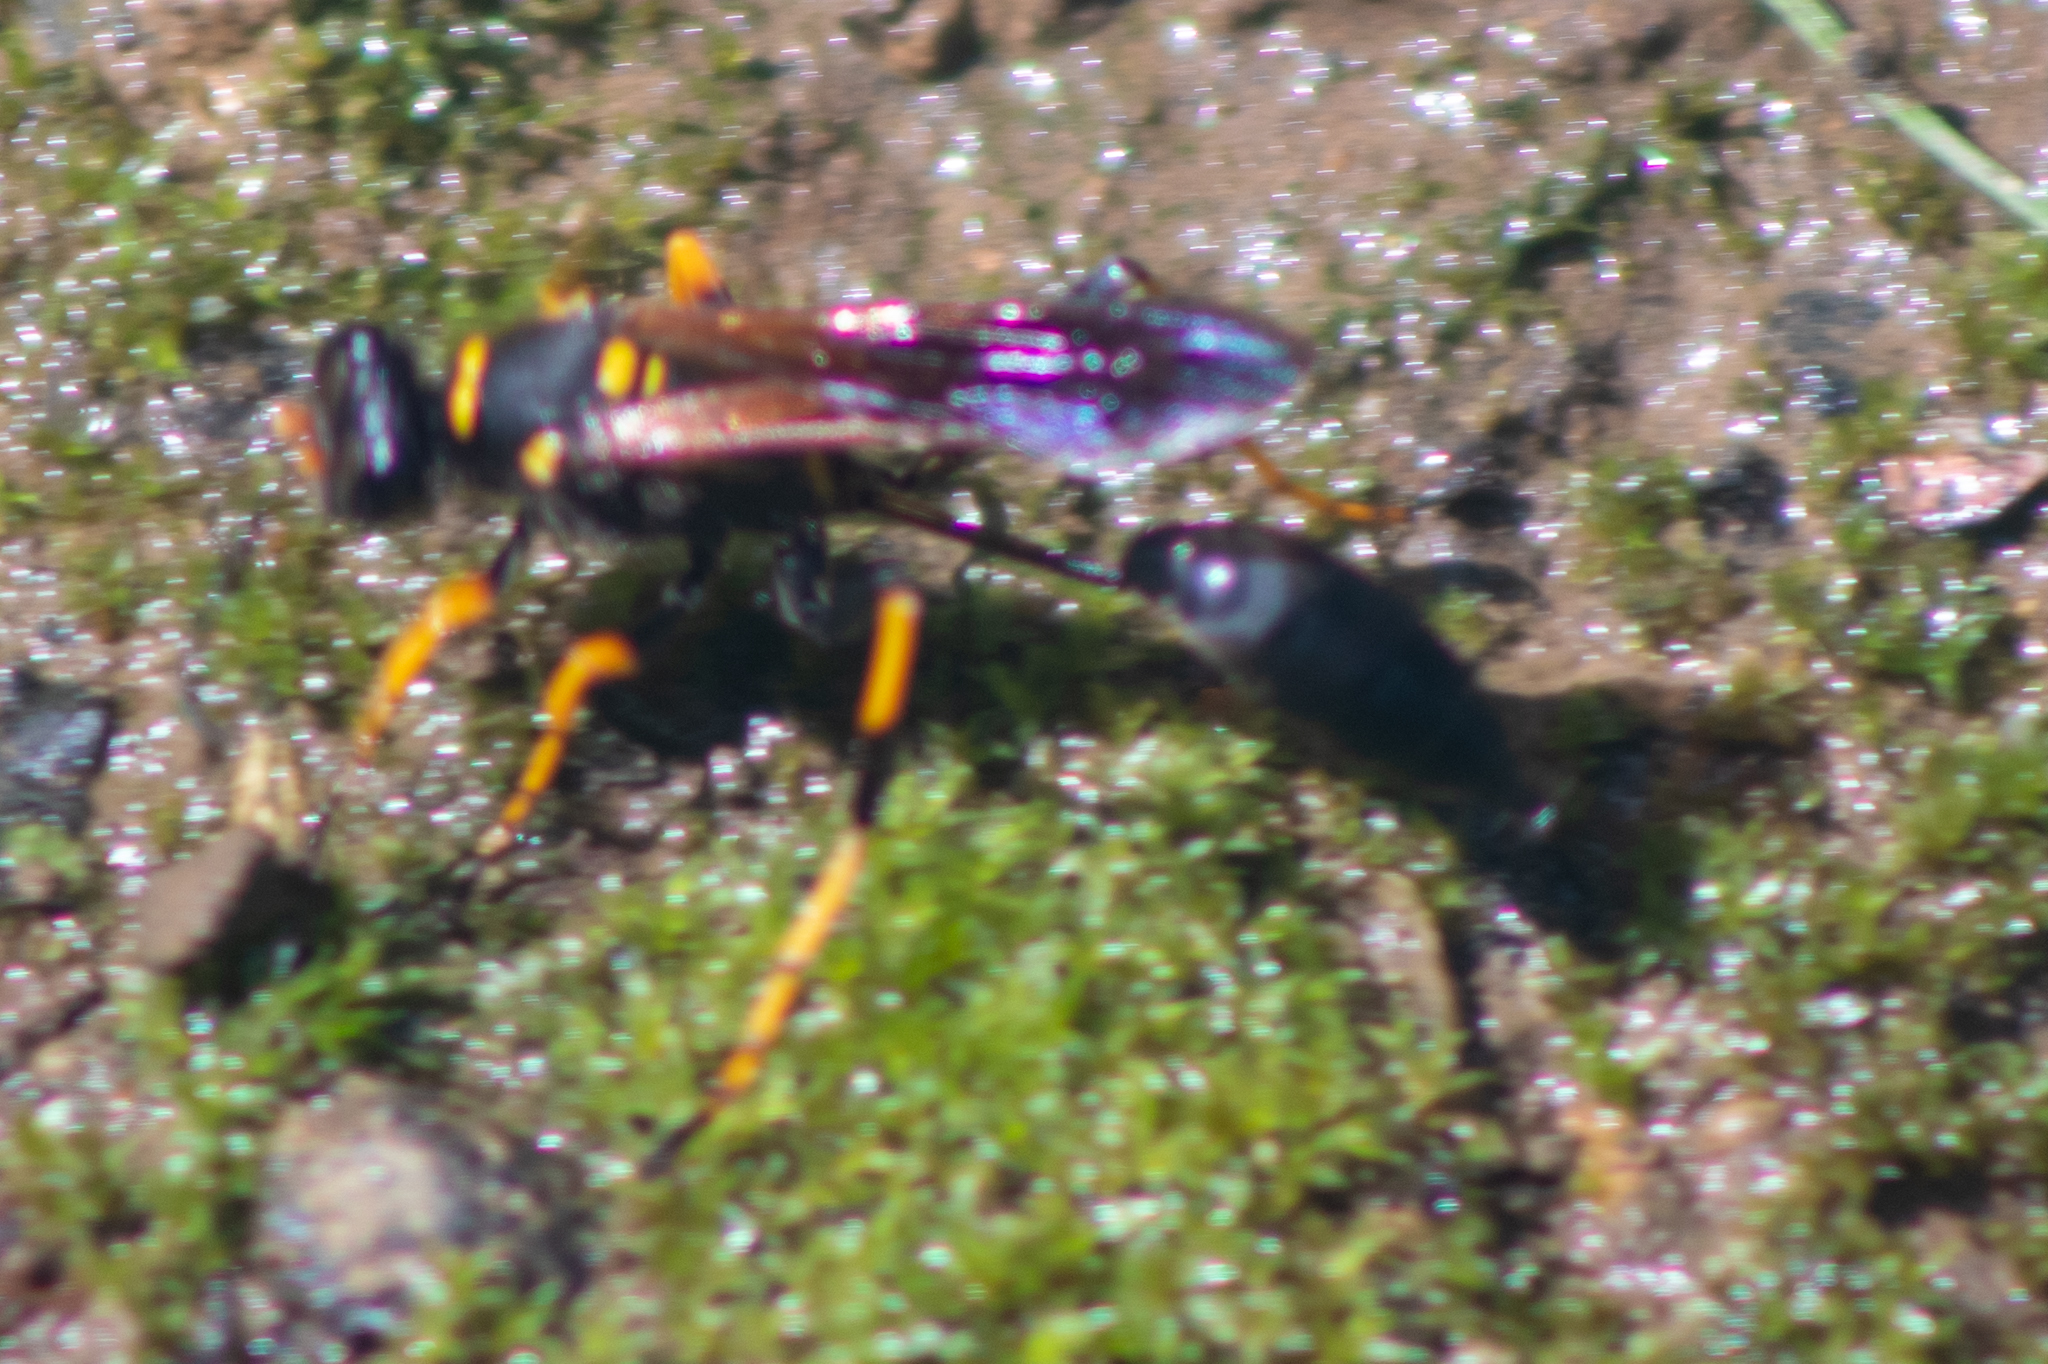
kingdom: Animalia
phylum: Arthropoda
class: Insecta
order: Hymenoptera
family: Sphecidae
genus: Sceliphron
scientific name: Sceliphron caementarium
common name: Mud dauber
